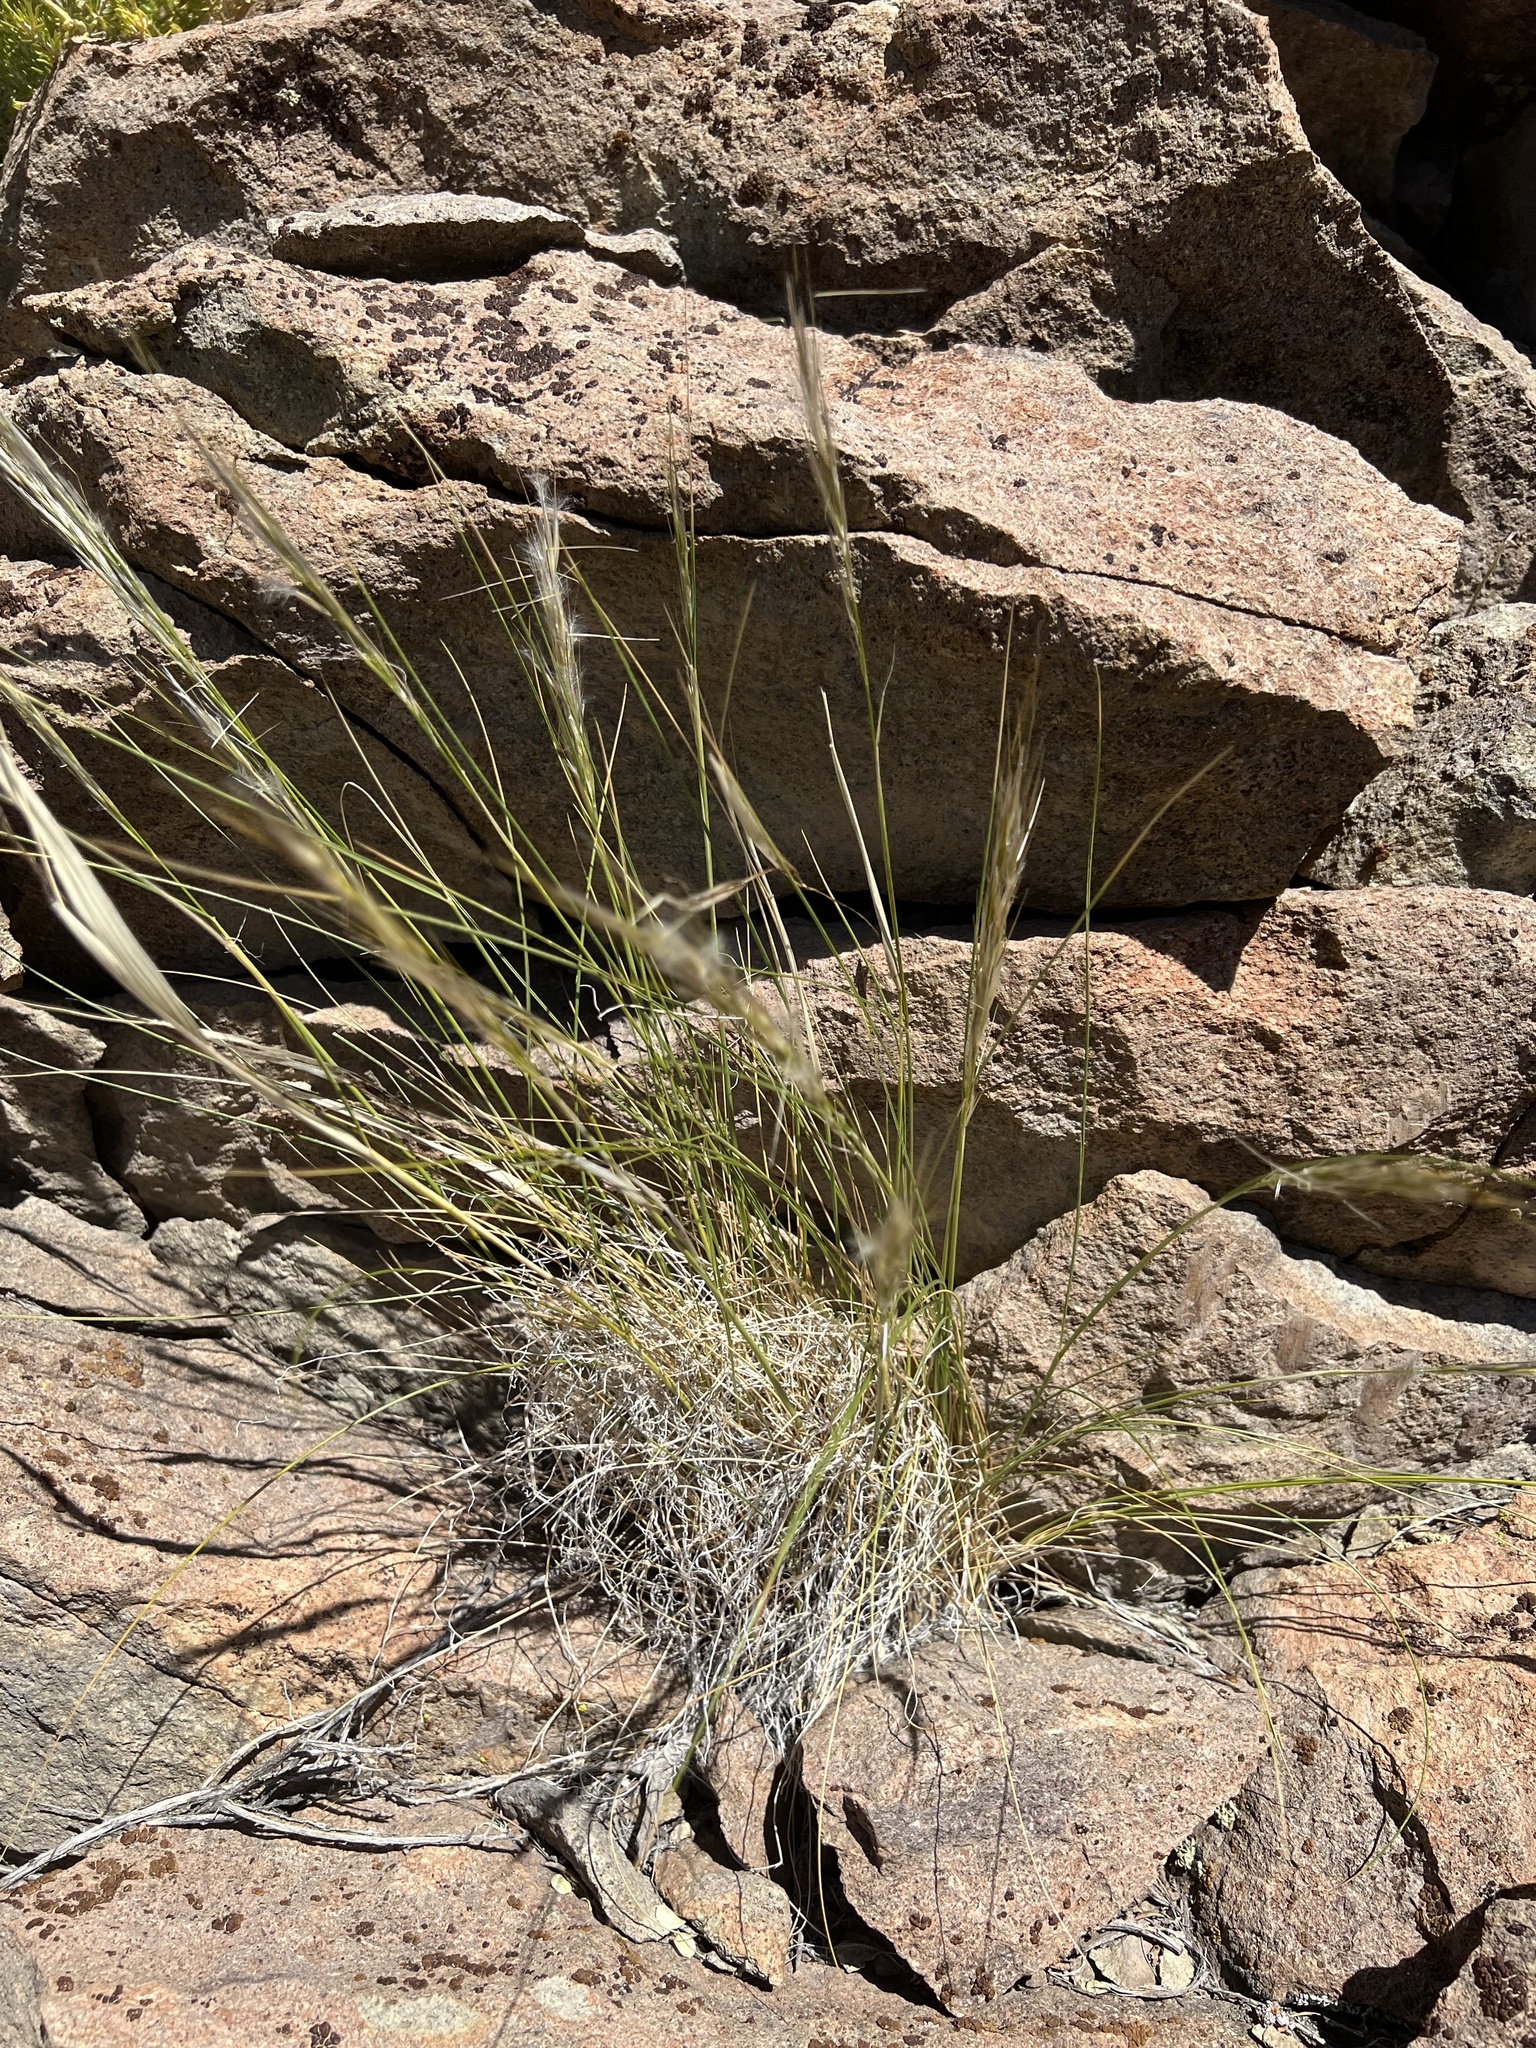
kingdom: Plantae
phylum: Tracheophyta
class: Liliopsida
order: Poales
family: Poaceae
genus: Pappostipa
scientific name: Pappostipa speciosa
